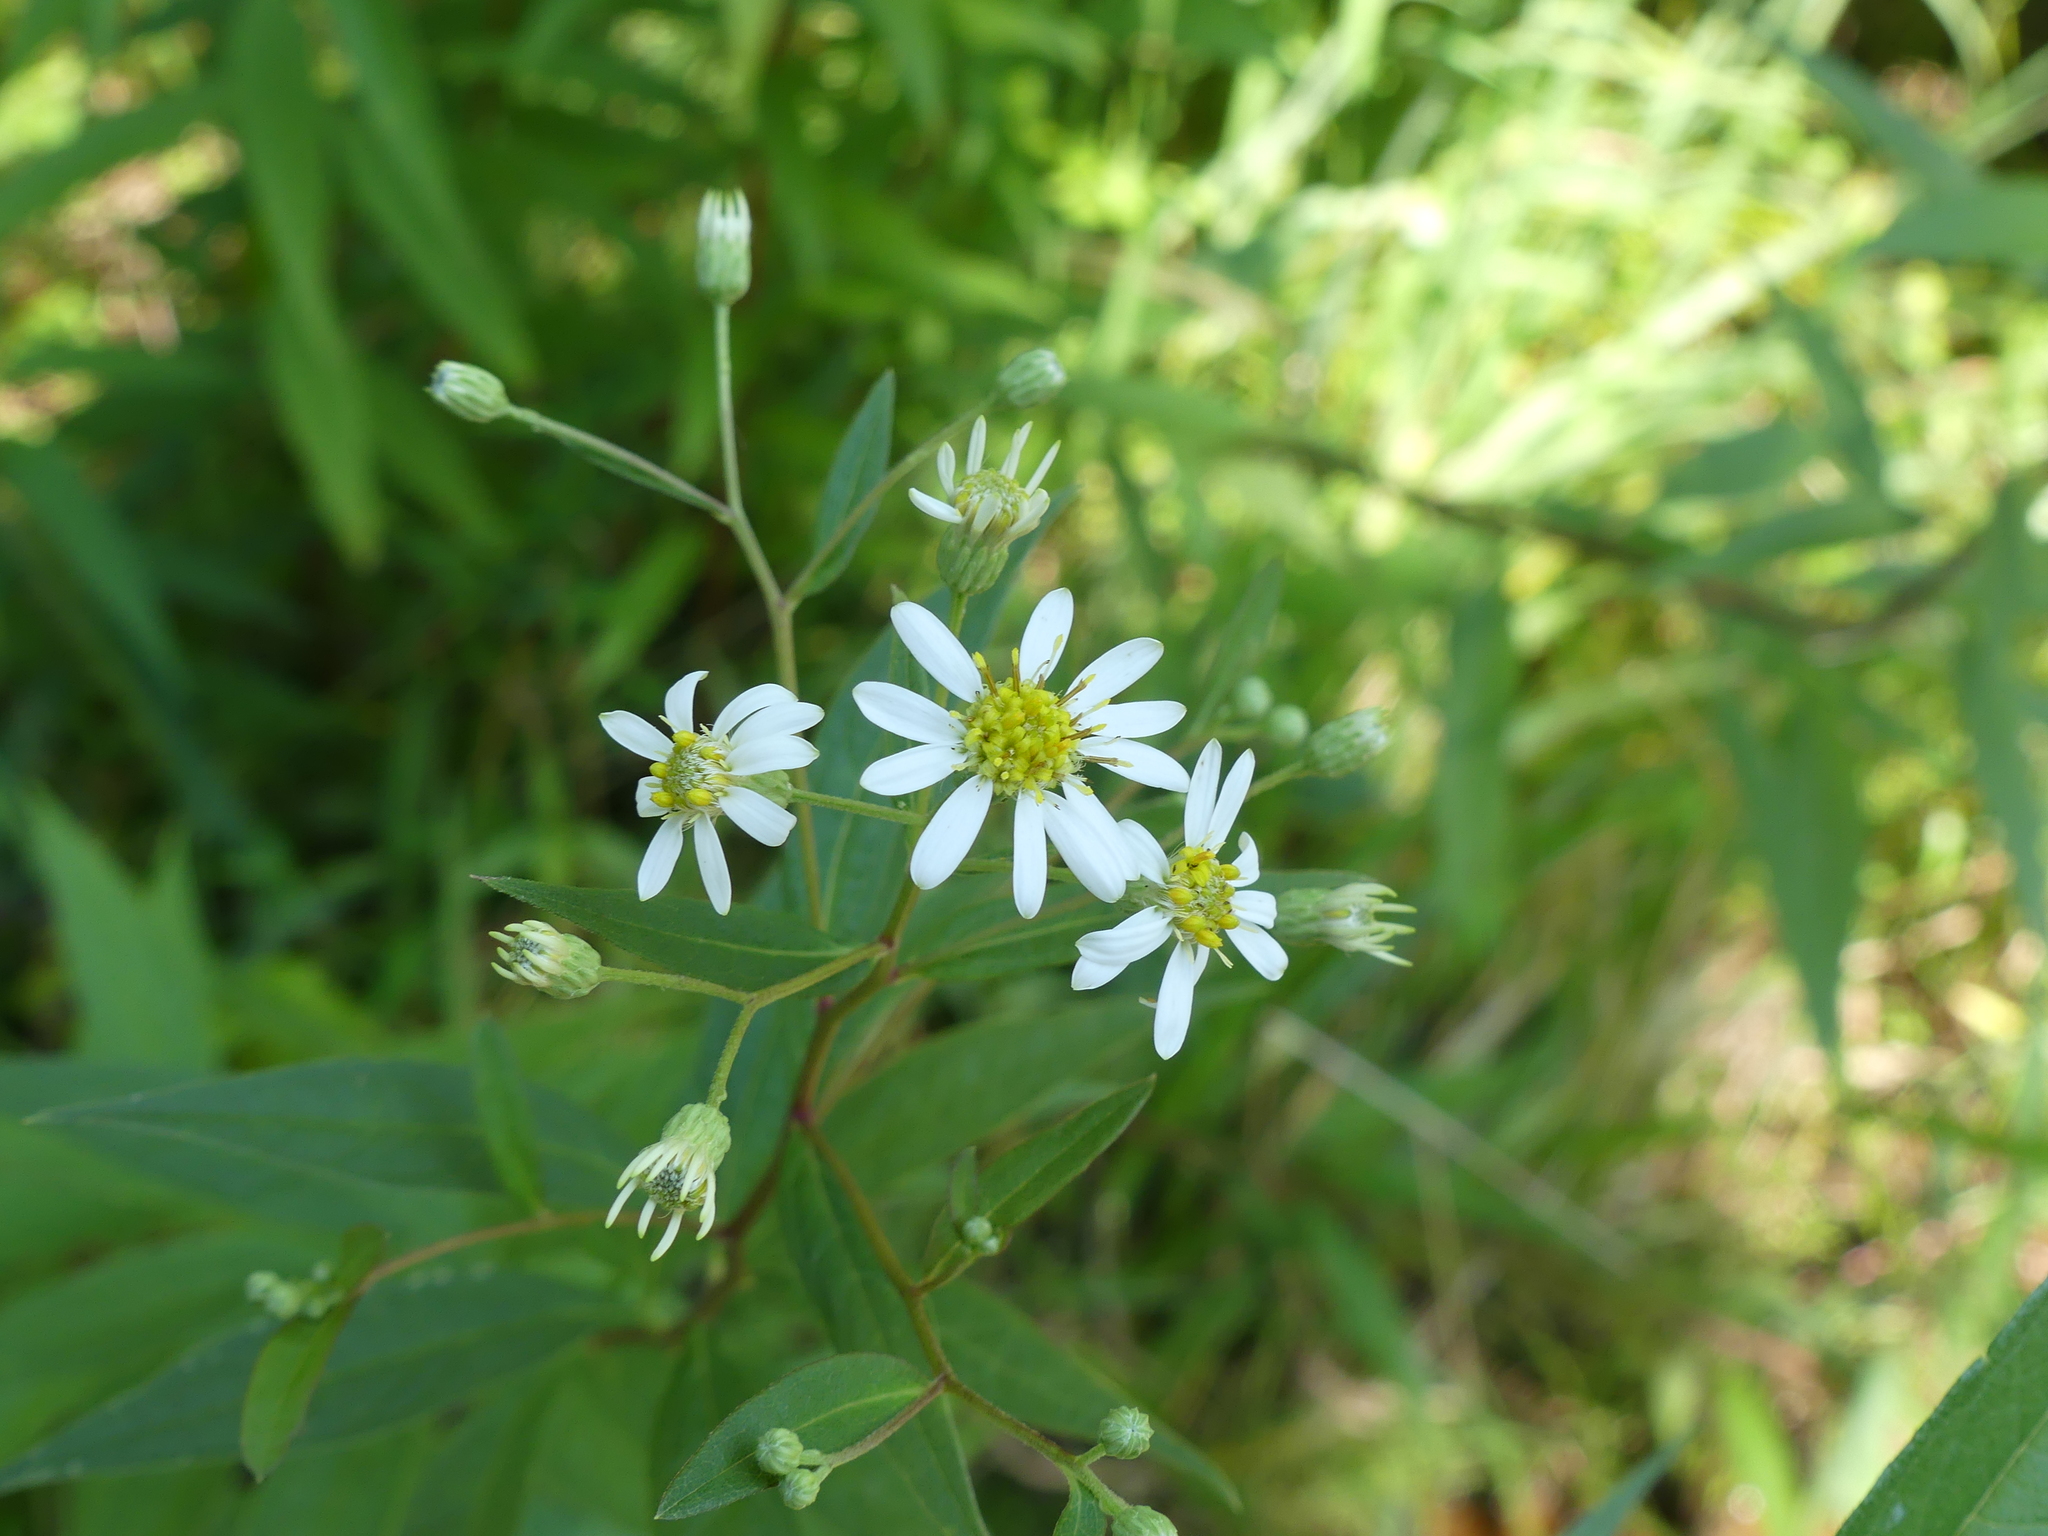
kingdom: Plantae
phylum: Tracheophyta
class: Magnoliopsida
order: Asterales
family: Asteraceae
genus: Doellingeria
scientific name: Doellingeria umbellata
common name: Flat-top white aster
